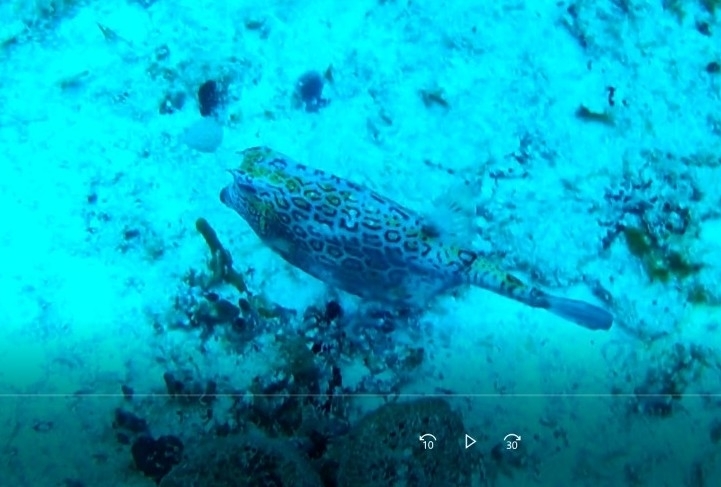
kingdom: Animalia
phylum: Chordata
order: Tetraodontiformes
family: Ostraciidae
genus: Acanthostracion
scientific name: Acanthostracion polygonius
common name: Honeycomb cowfish
